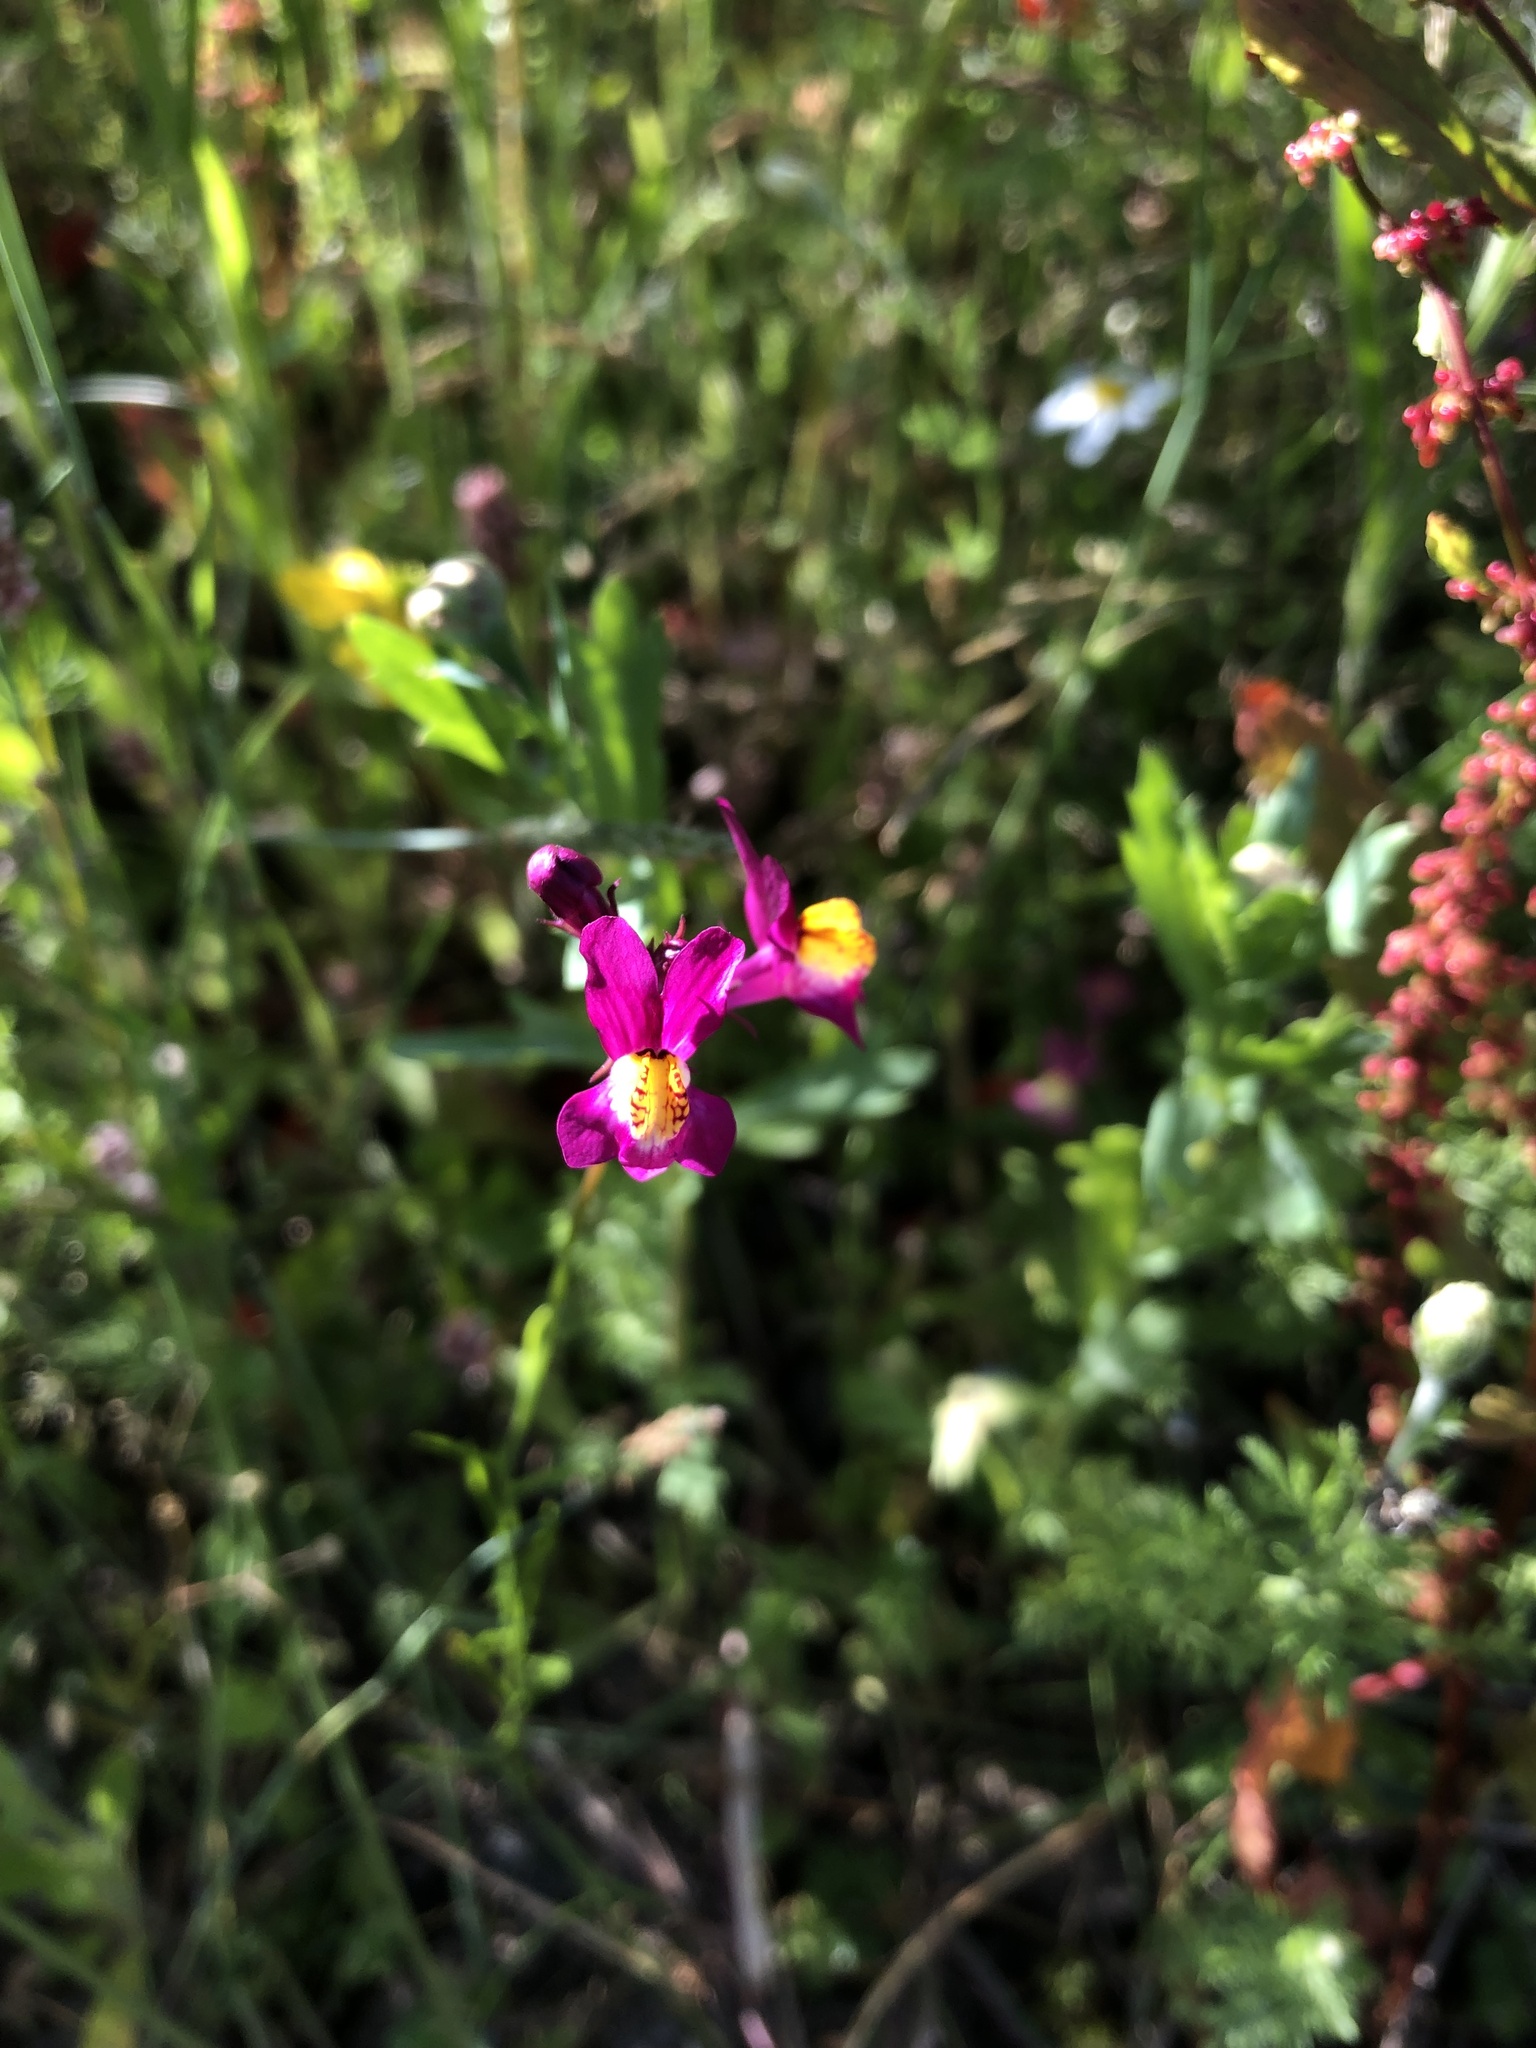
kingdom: Plantae
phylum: Tracheophyta
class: Magnoliopsida
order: Lamiales
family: Plantaginaceae
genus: Linaria
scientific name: Linaria maroccana
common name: Moroccan toadflax
